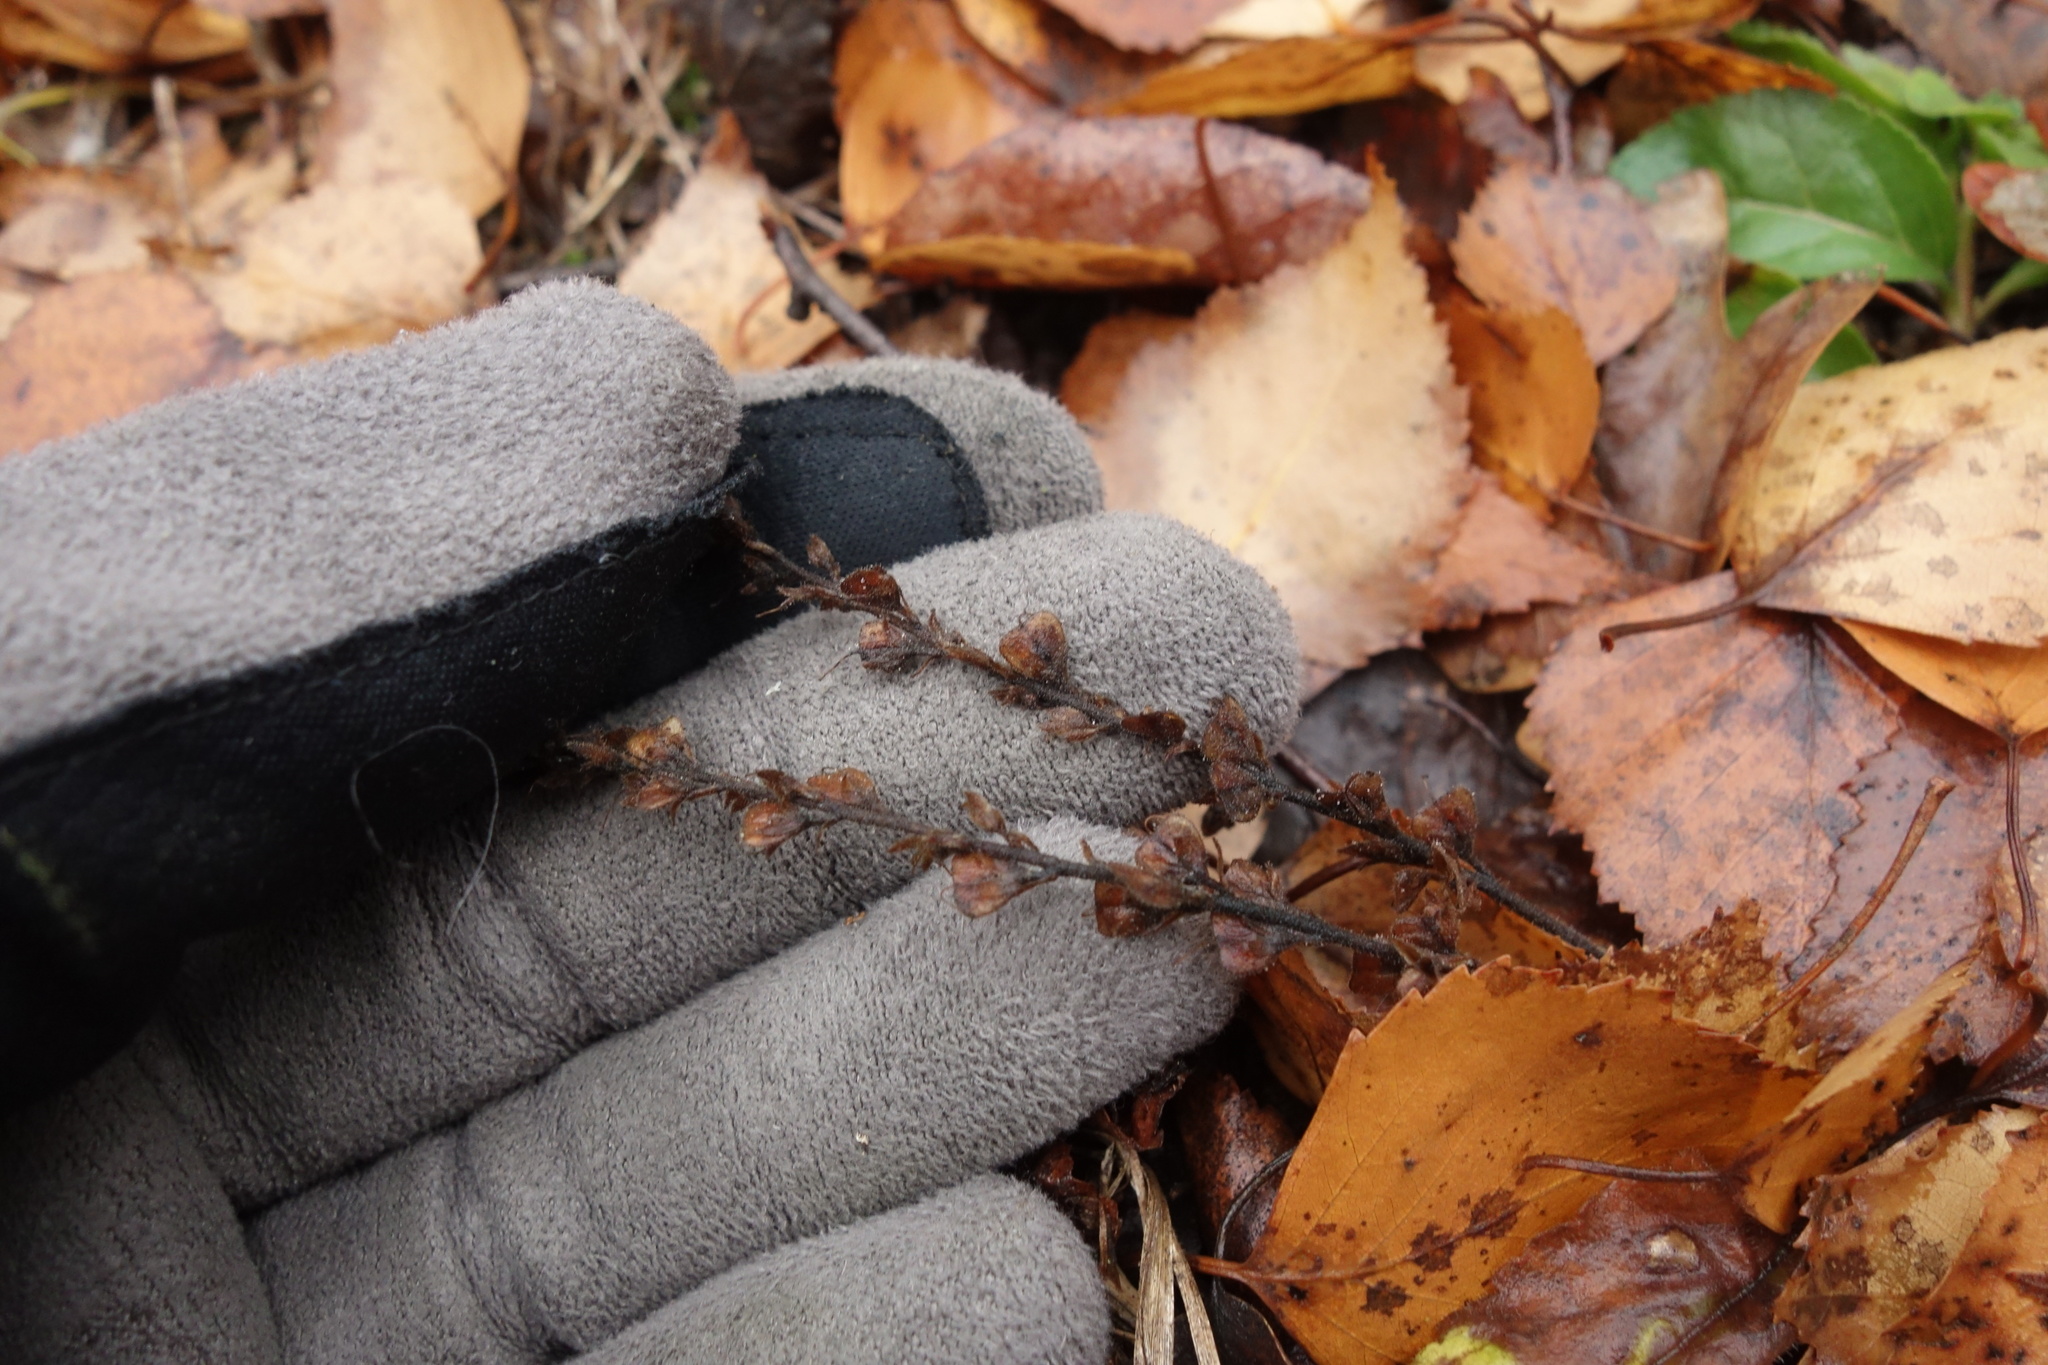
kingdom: Plantae
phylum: Tracheophyta
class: Magnoliopsida
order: Lamiales
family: Plantaginaceae
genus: Veronica
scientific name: Veronica officinalis
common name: Common speedwell
